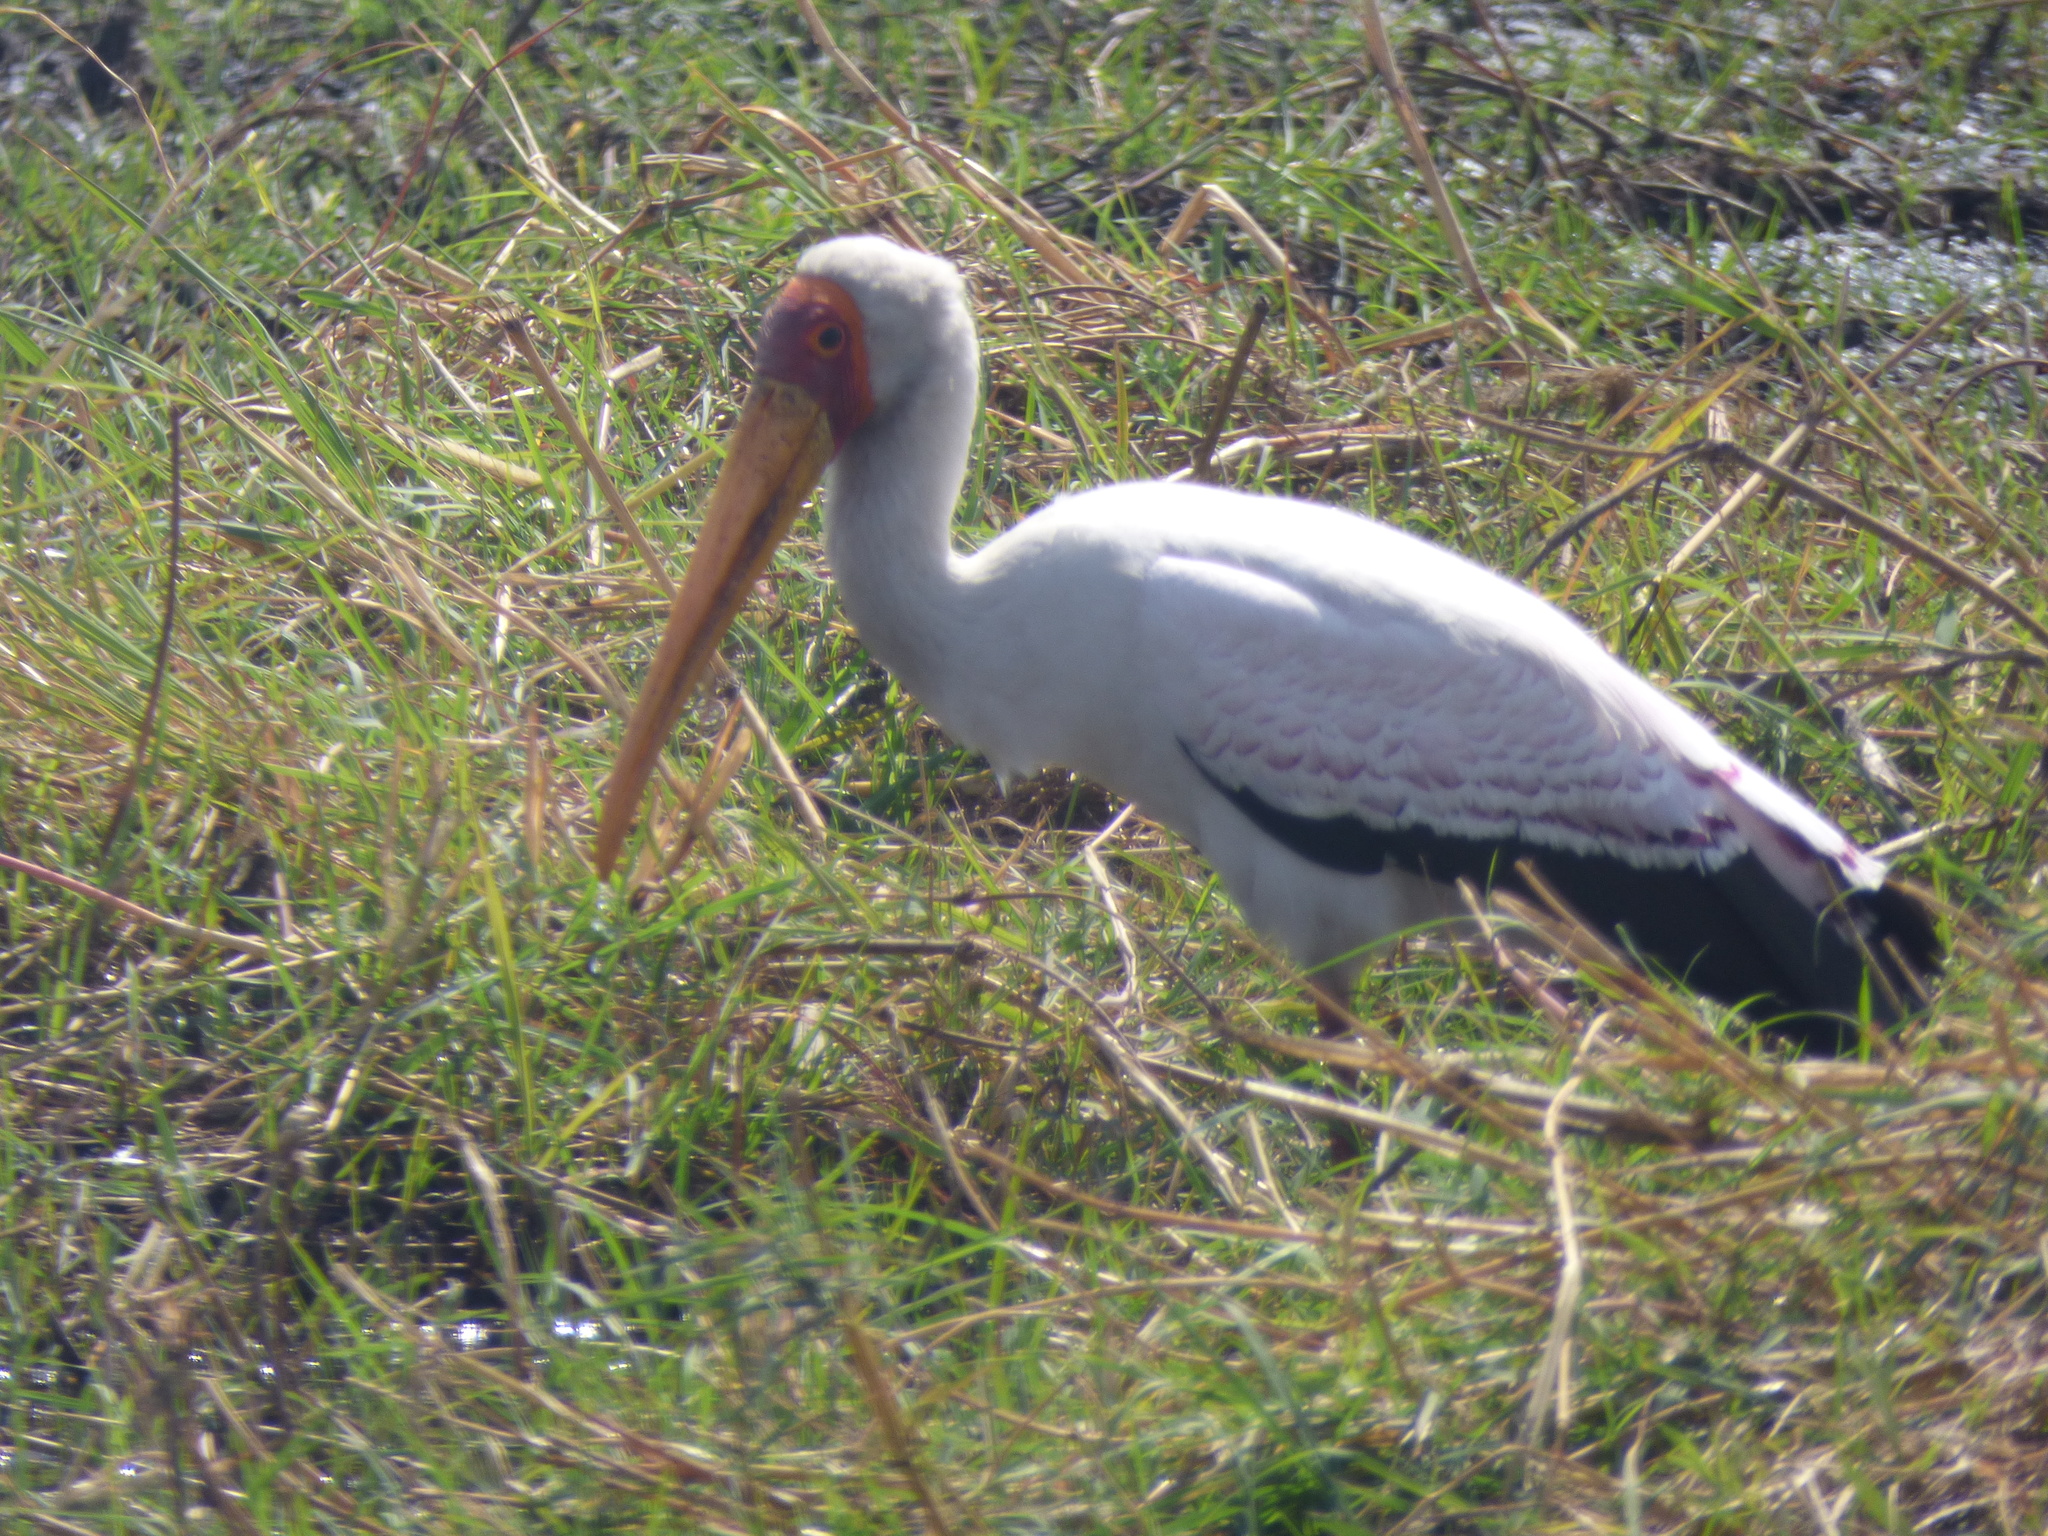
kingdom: Animalia
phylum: Chordata
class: Aves
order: Ciconiiformes
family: Ciconiidae
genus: Mycteria
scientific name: Mycteria ibis
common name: Yellow-billed stork
